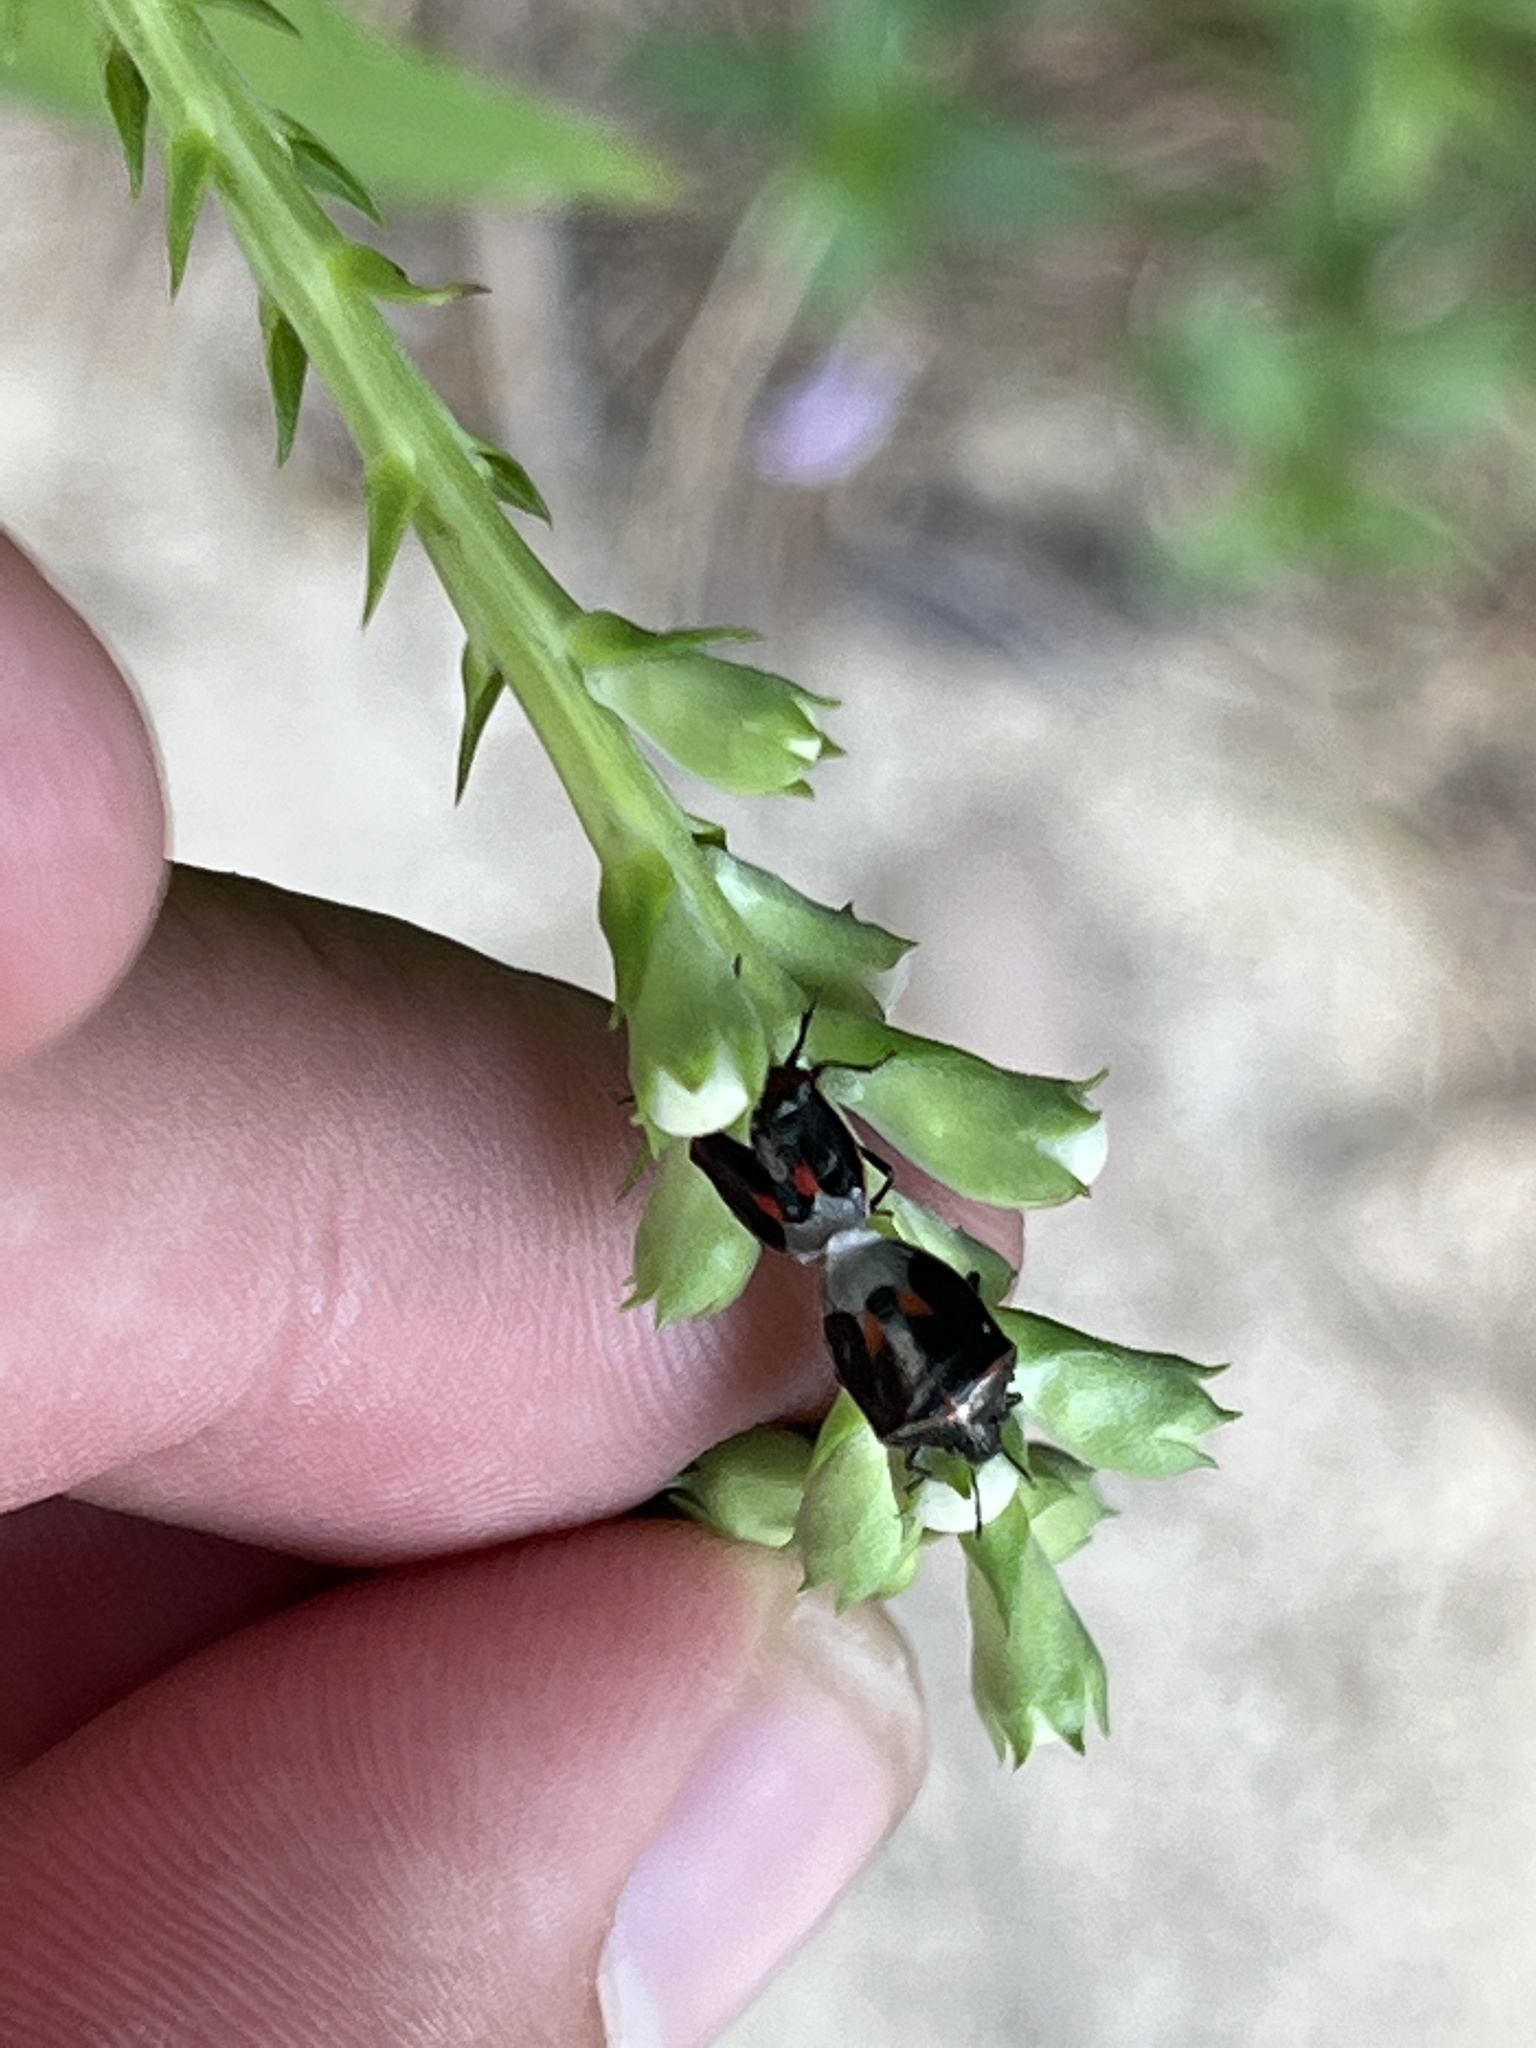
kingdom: Animalia
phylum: Arthropoda
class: Insecta
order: Hemiptera
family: Pentatomidae
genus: Cosmopepla
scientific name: Cosmopepla lintneriana
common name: Twice-stabbed stink bug
